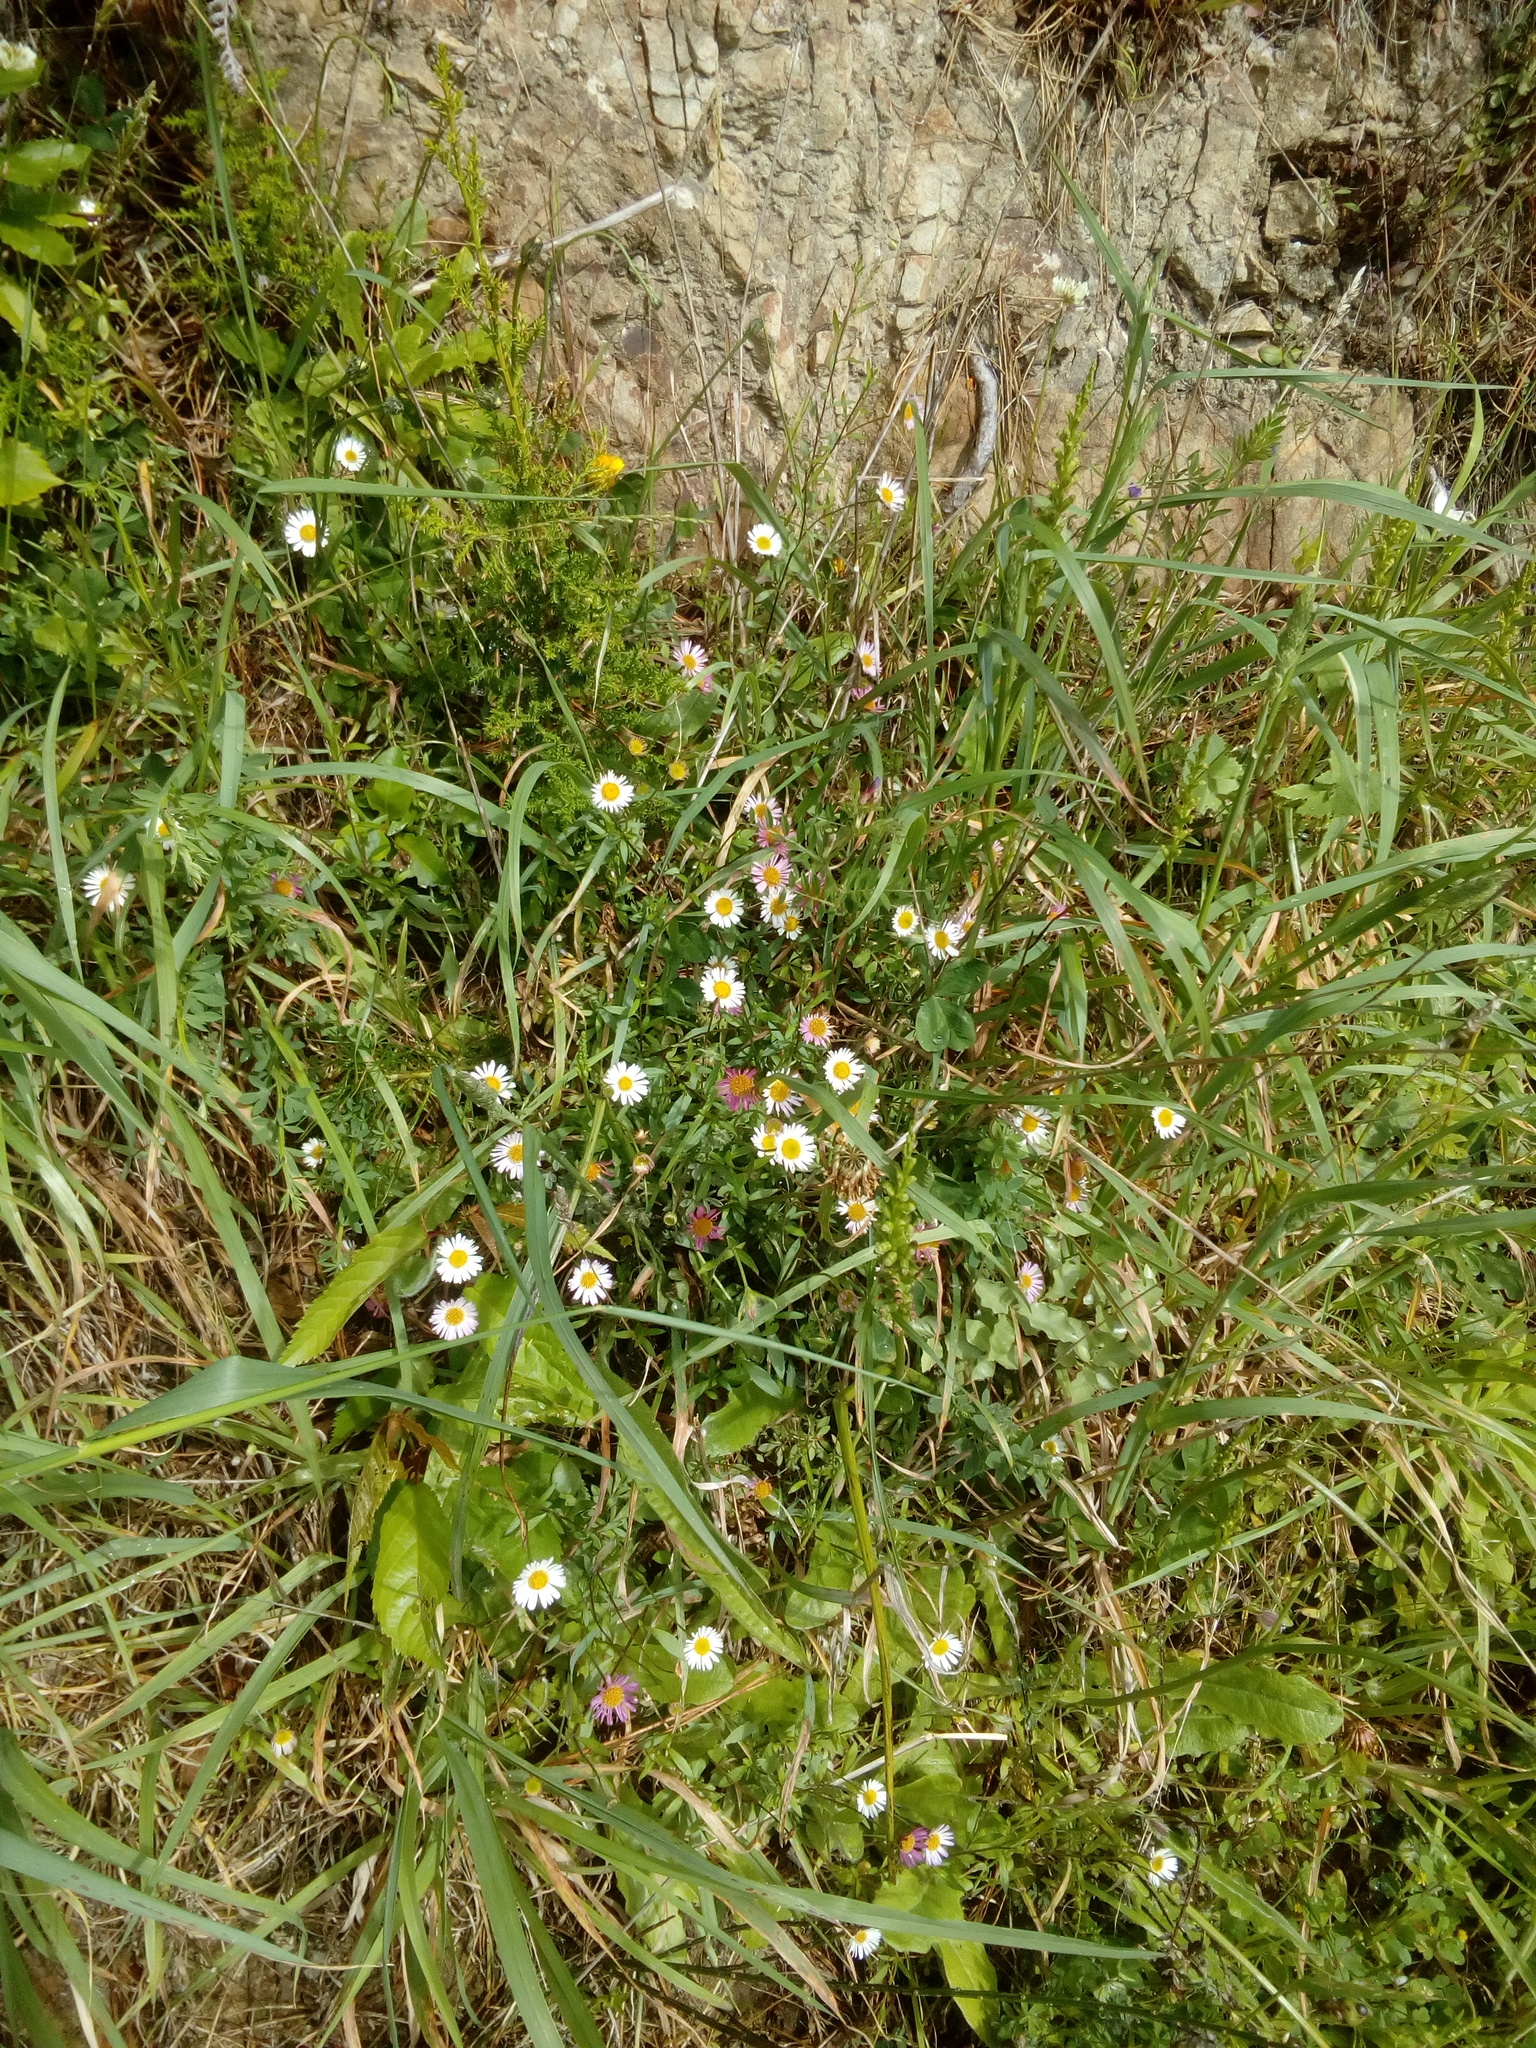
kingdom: Plantae
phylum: Tracheophyta
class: Magnoliopsida
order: Asterales
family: Asteraceae
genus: Erigeron
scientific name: Erigeron karvinskianus
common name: Mexican fleabane
